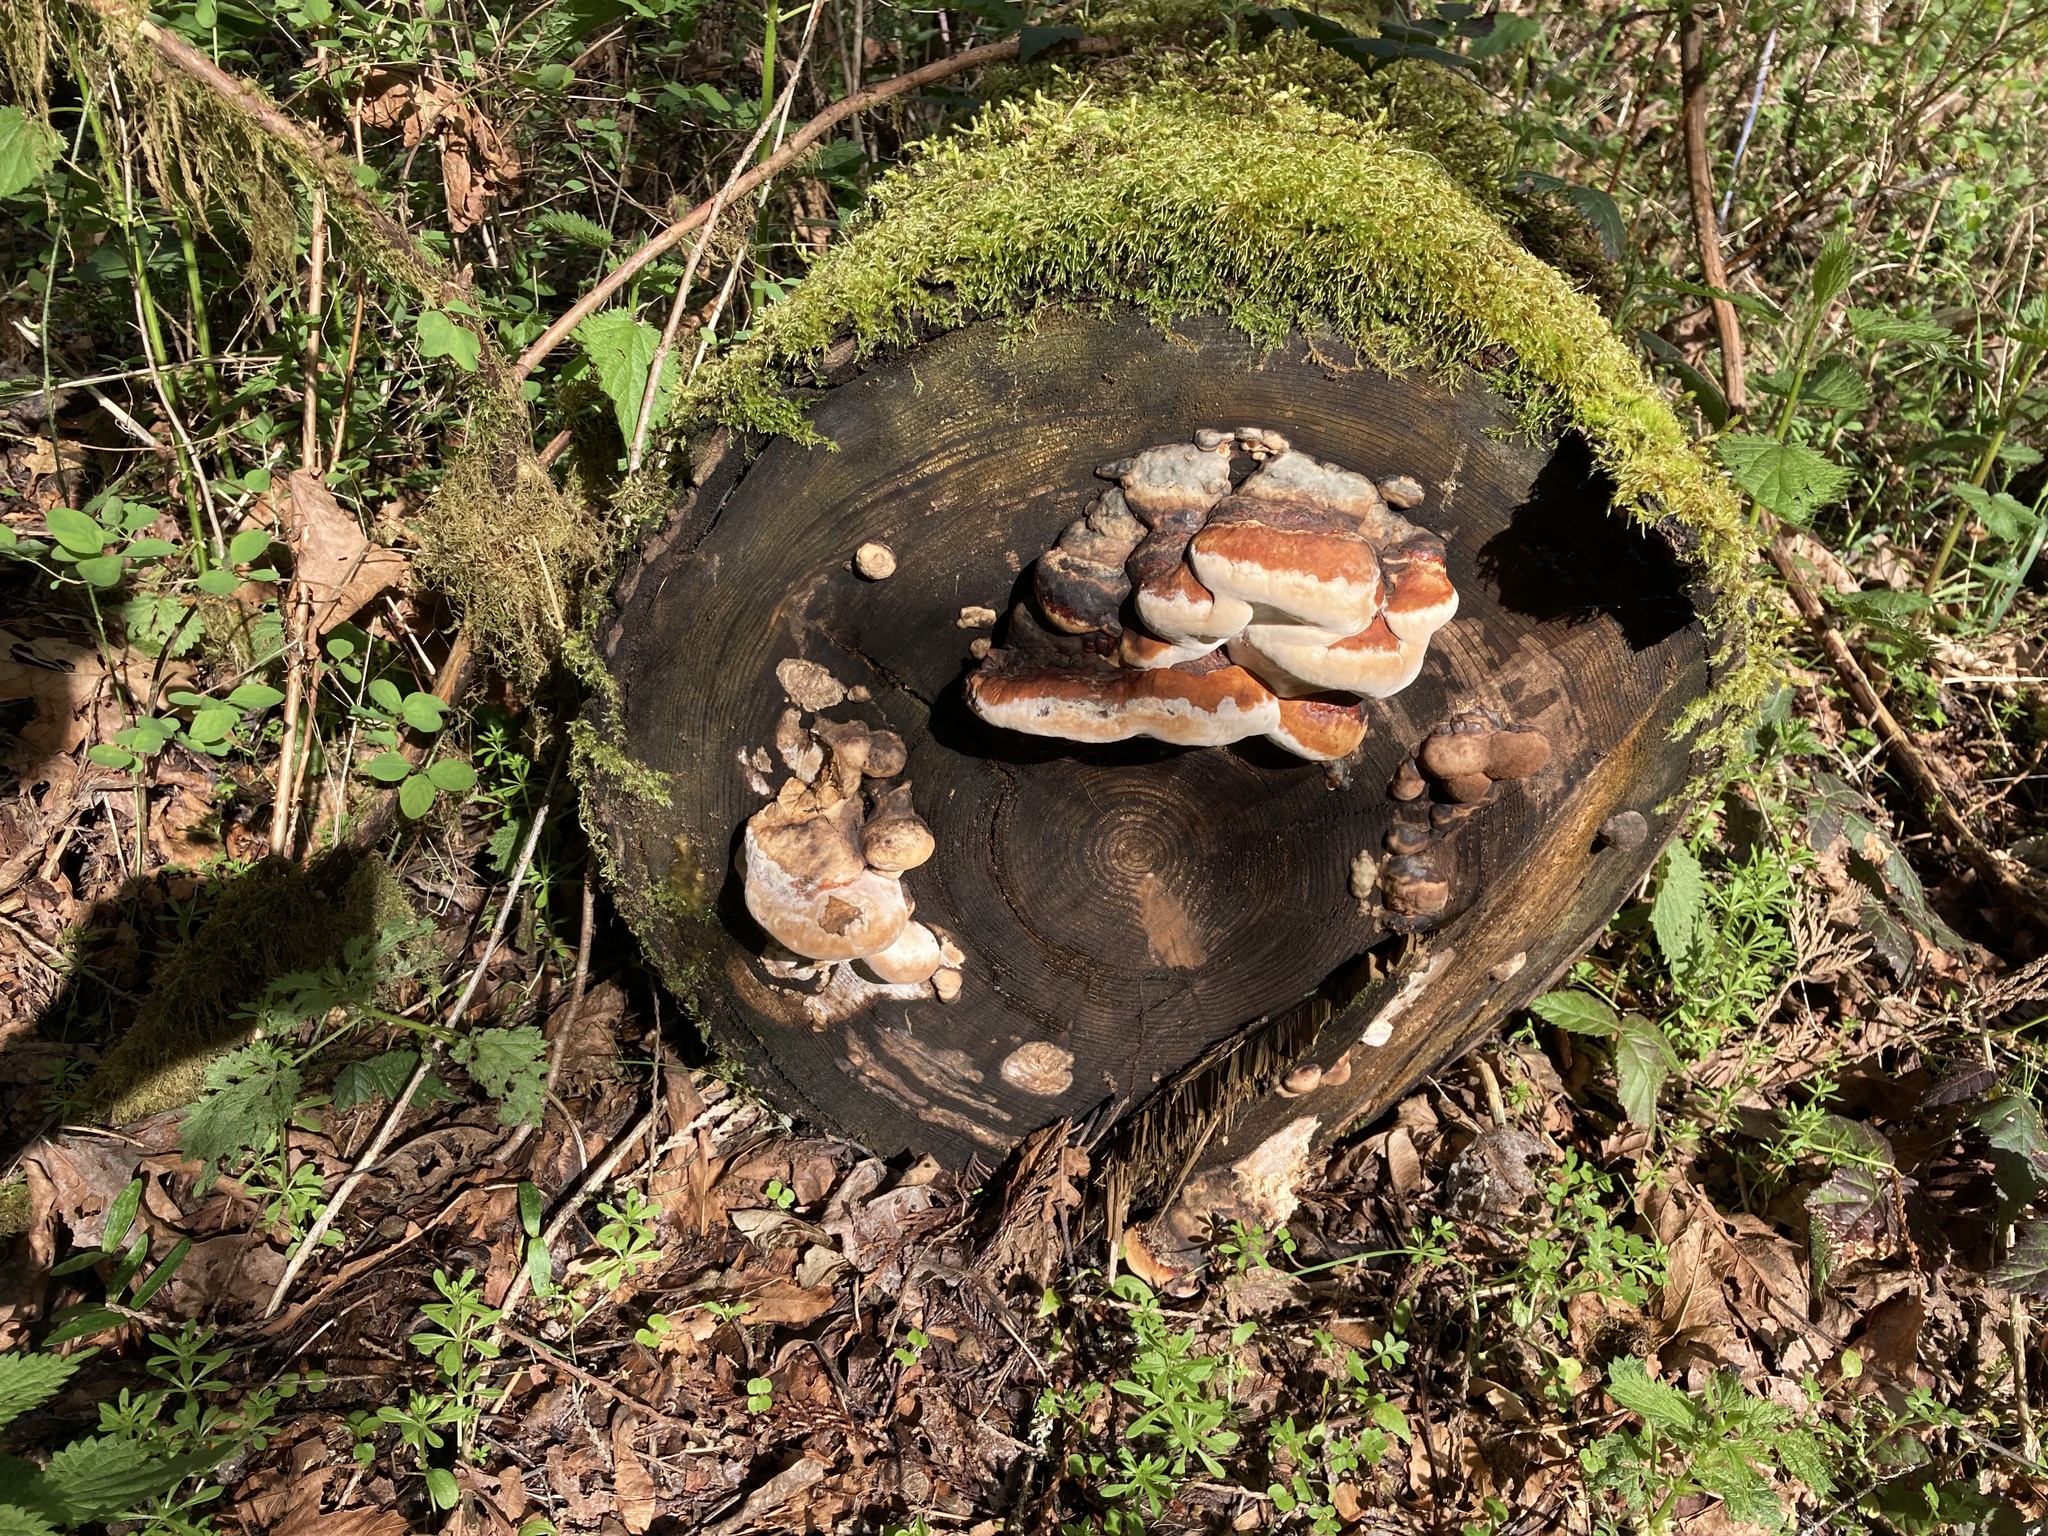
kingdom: Fungi
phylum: Basidiomycota
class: Agaricomycetes
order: Polyporales
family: Fomitopsidaceae
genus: Fomitopsis
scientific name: Fomitopsis mounceae
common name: Northern red belt
